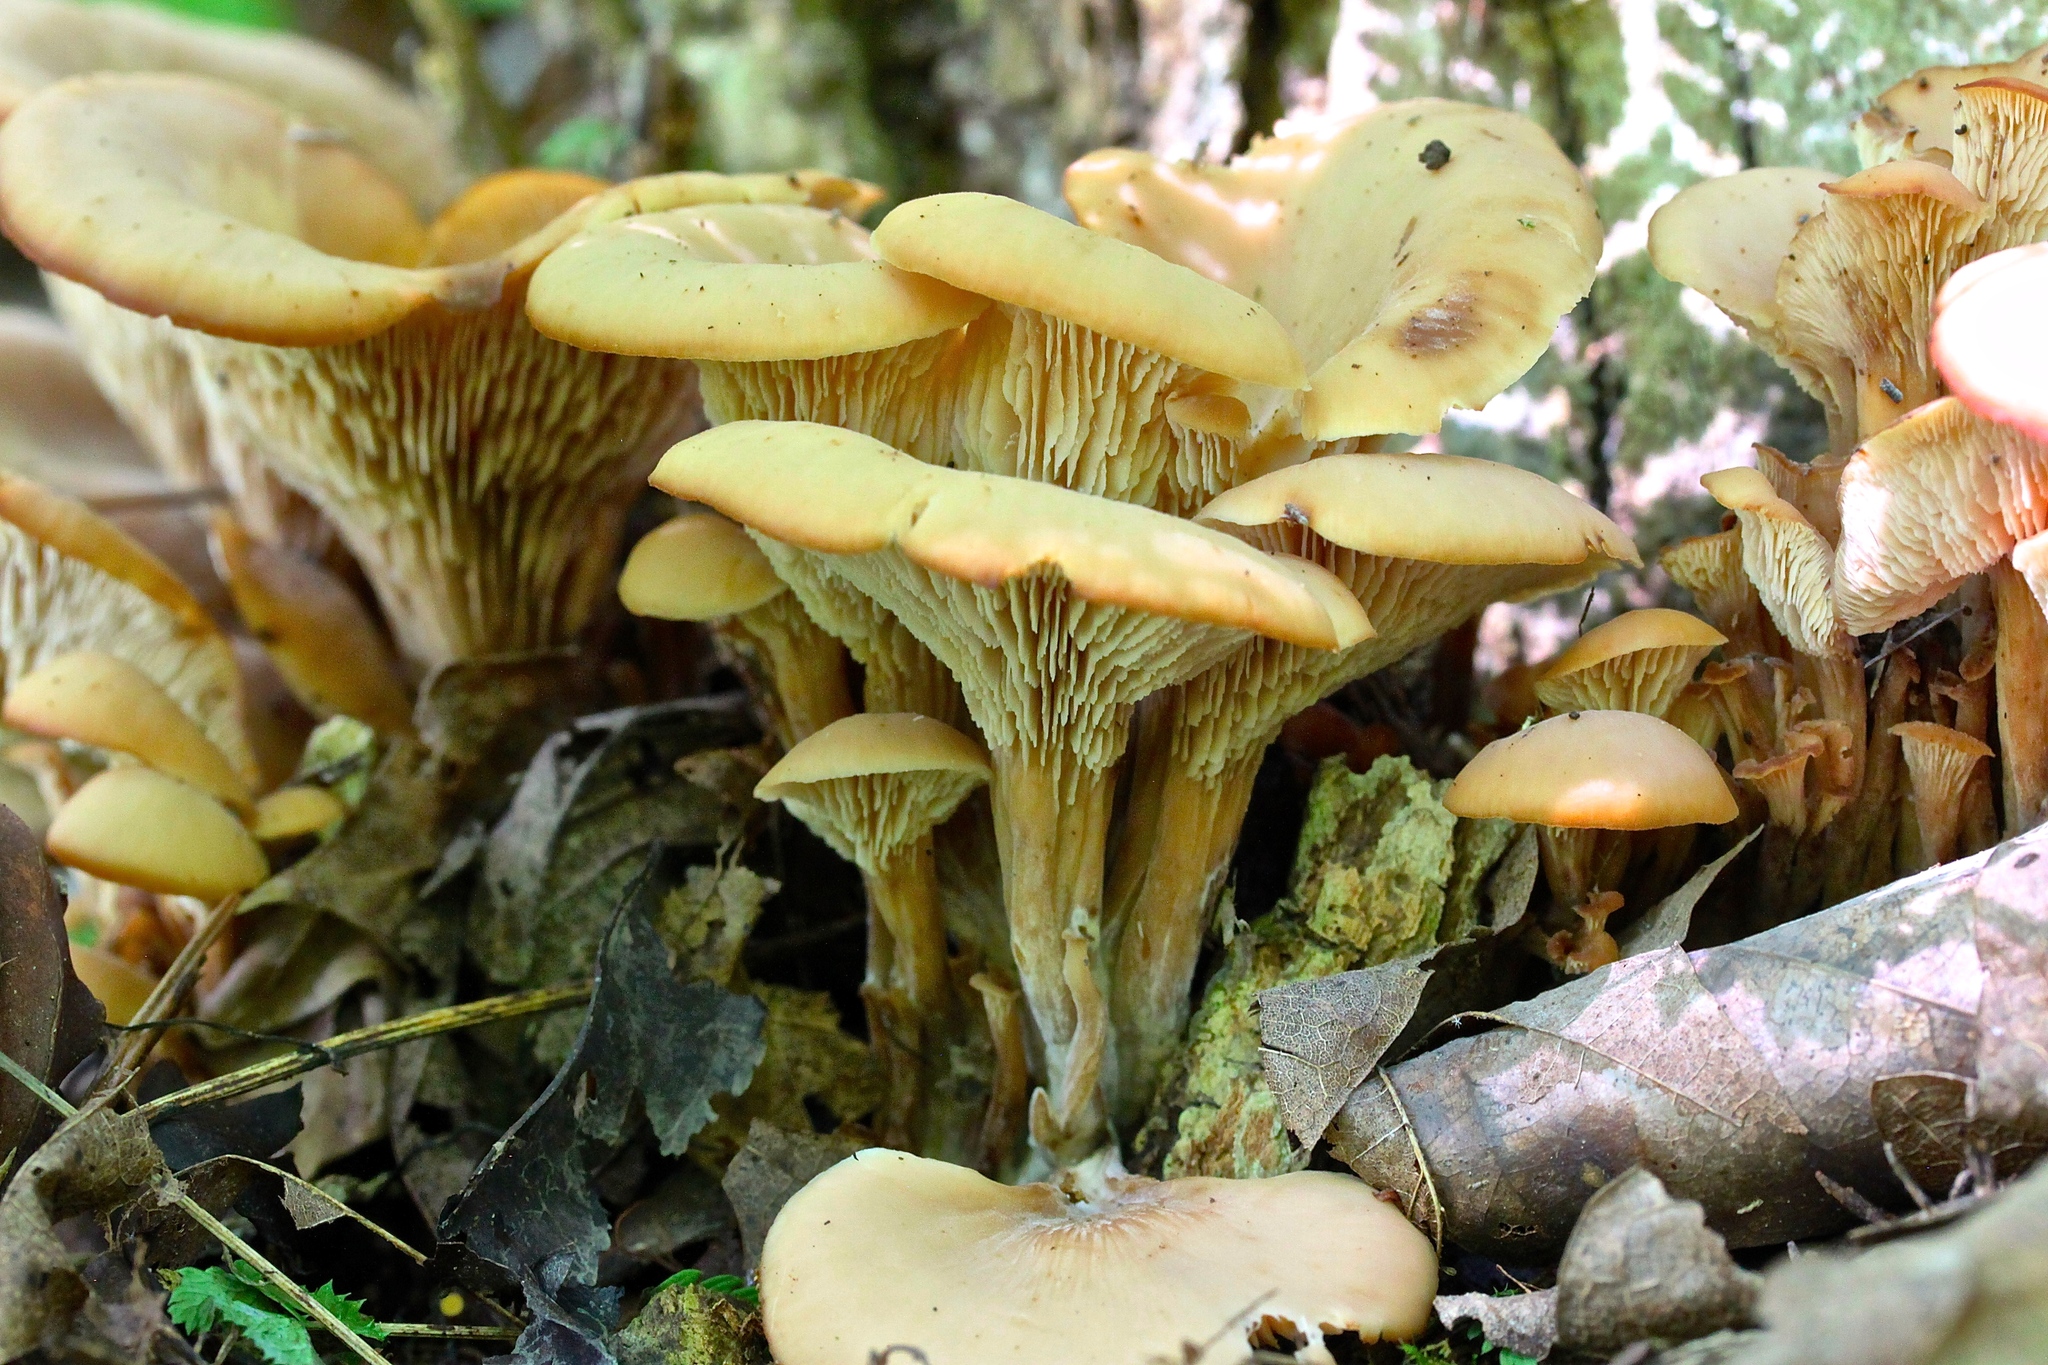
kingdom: Fungi
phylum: Basidiomycota
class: Agaricomycetes
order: Russulales
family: Auriscalpiaceae
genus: Lentinellus
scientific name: Lentinellus micheneri
